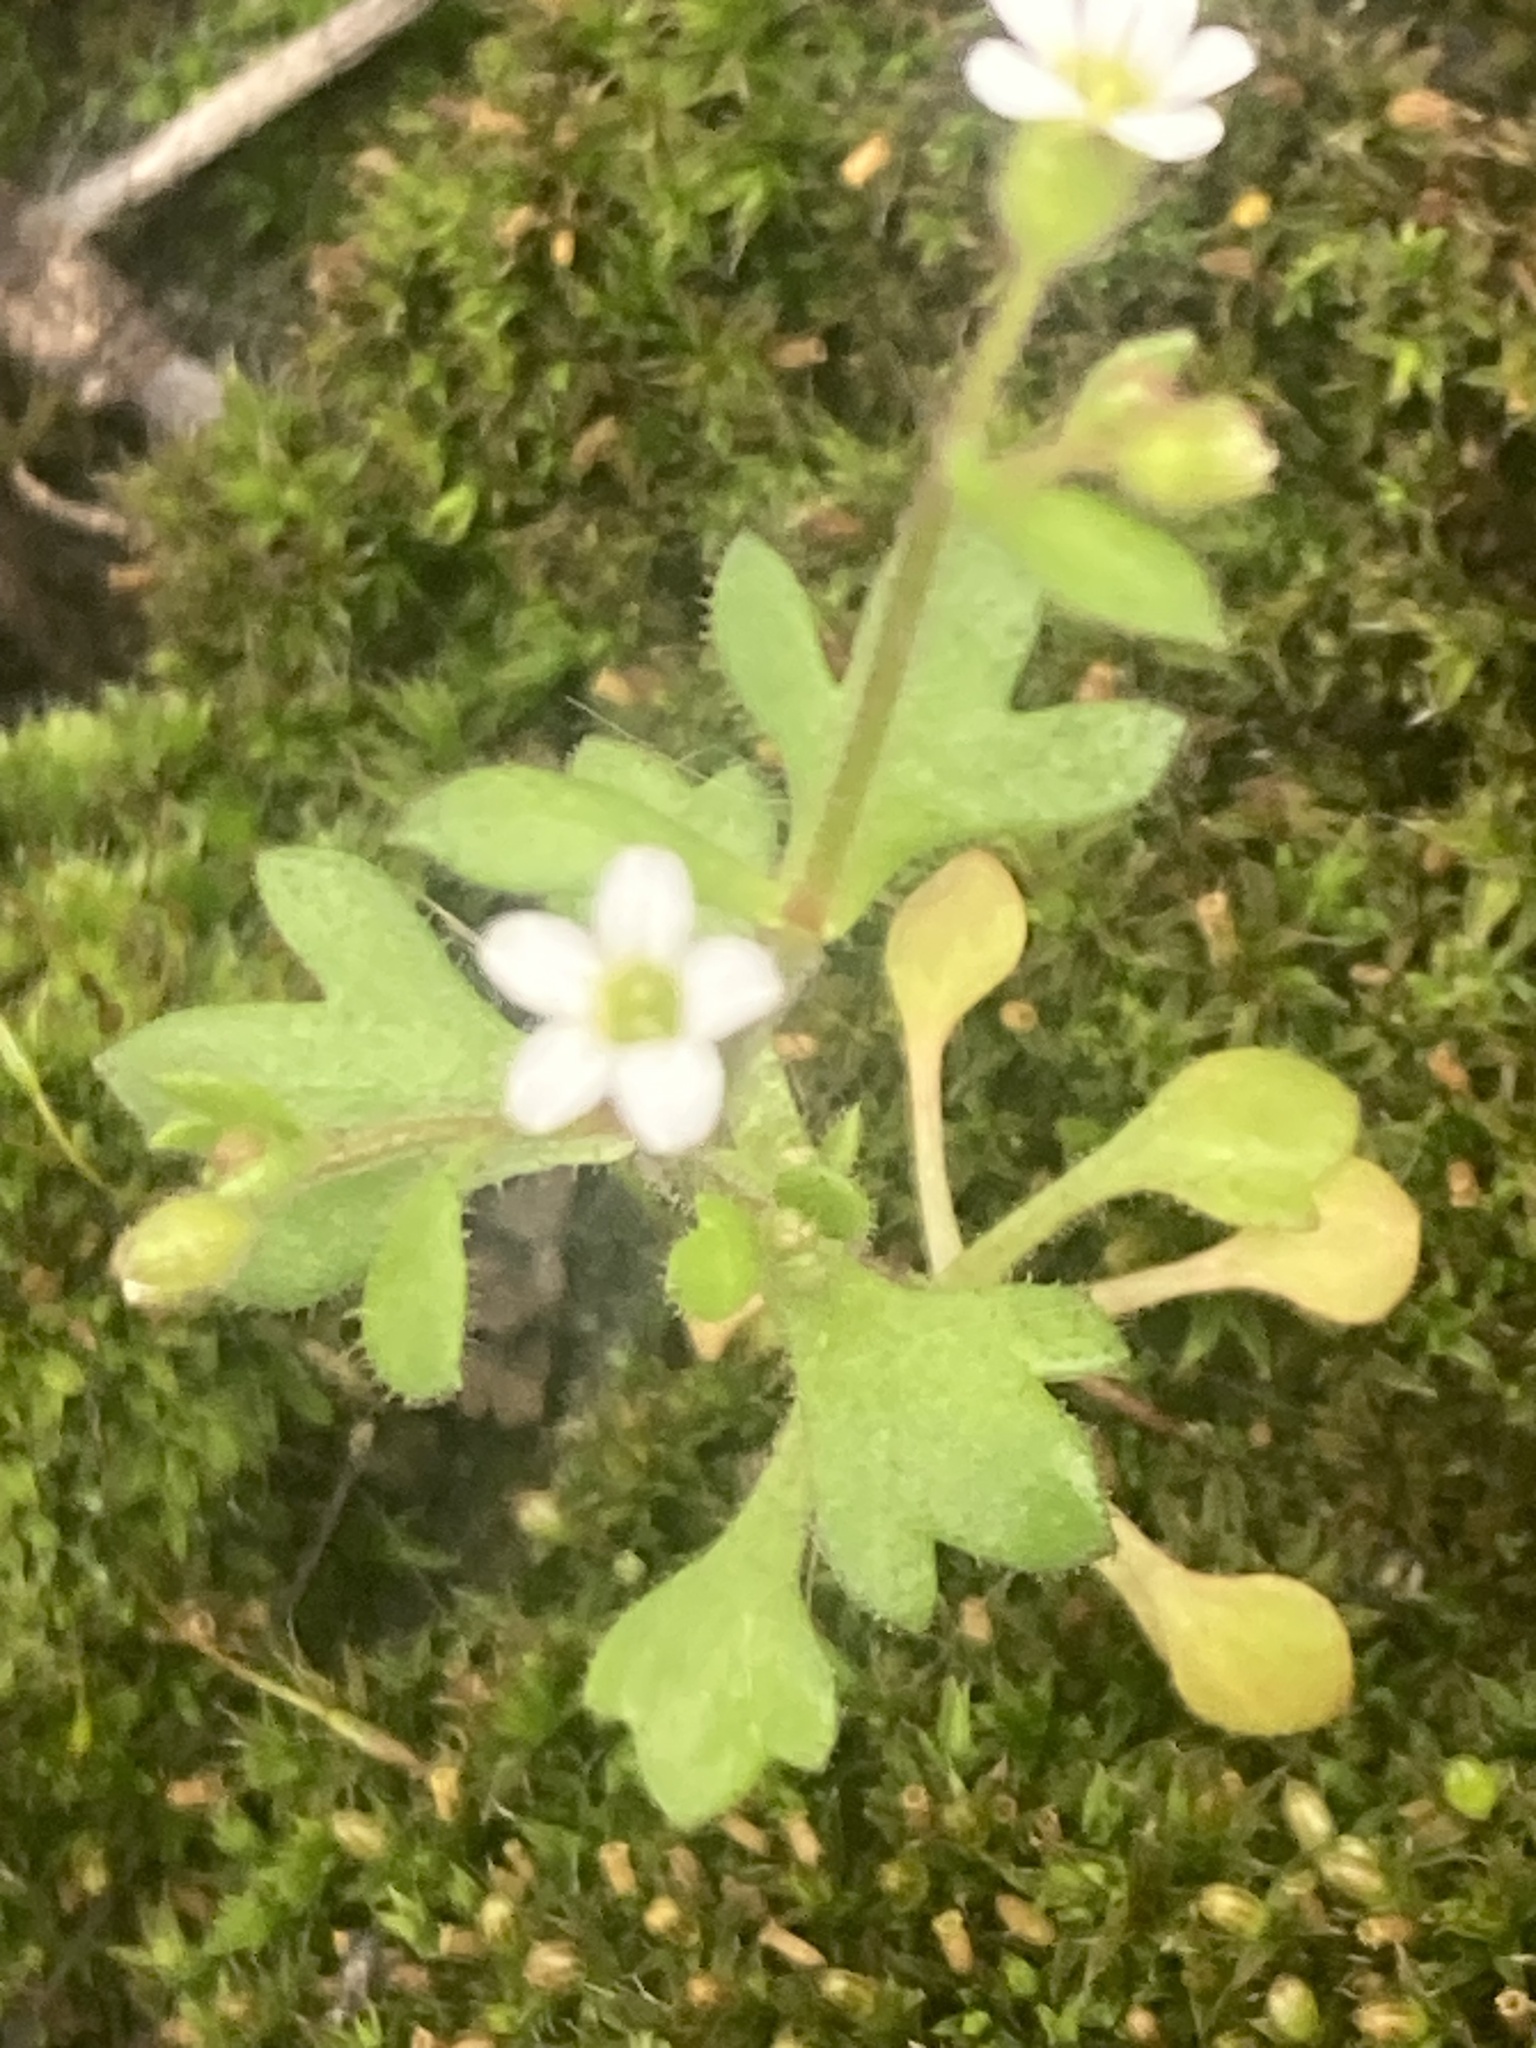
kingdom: Plantae
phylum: Tracheophyta
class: Magnoliopsida
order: Saxifragales
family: Saxifragaceae
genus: Saxifraga
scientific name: Saxifraga tridactylites
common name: Rue-leaved saxifrage
